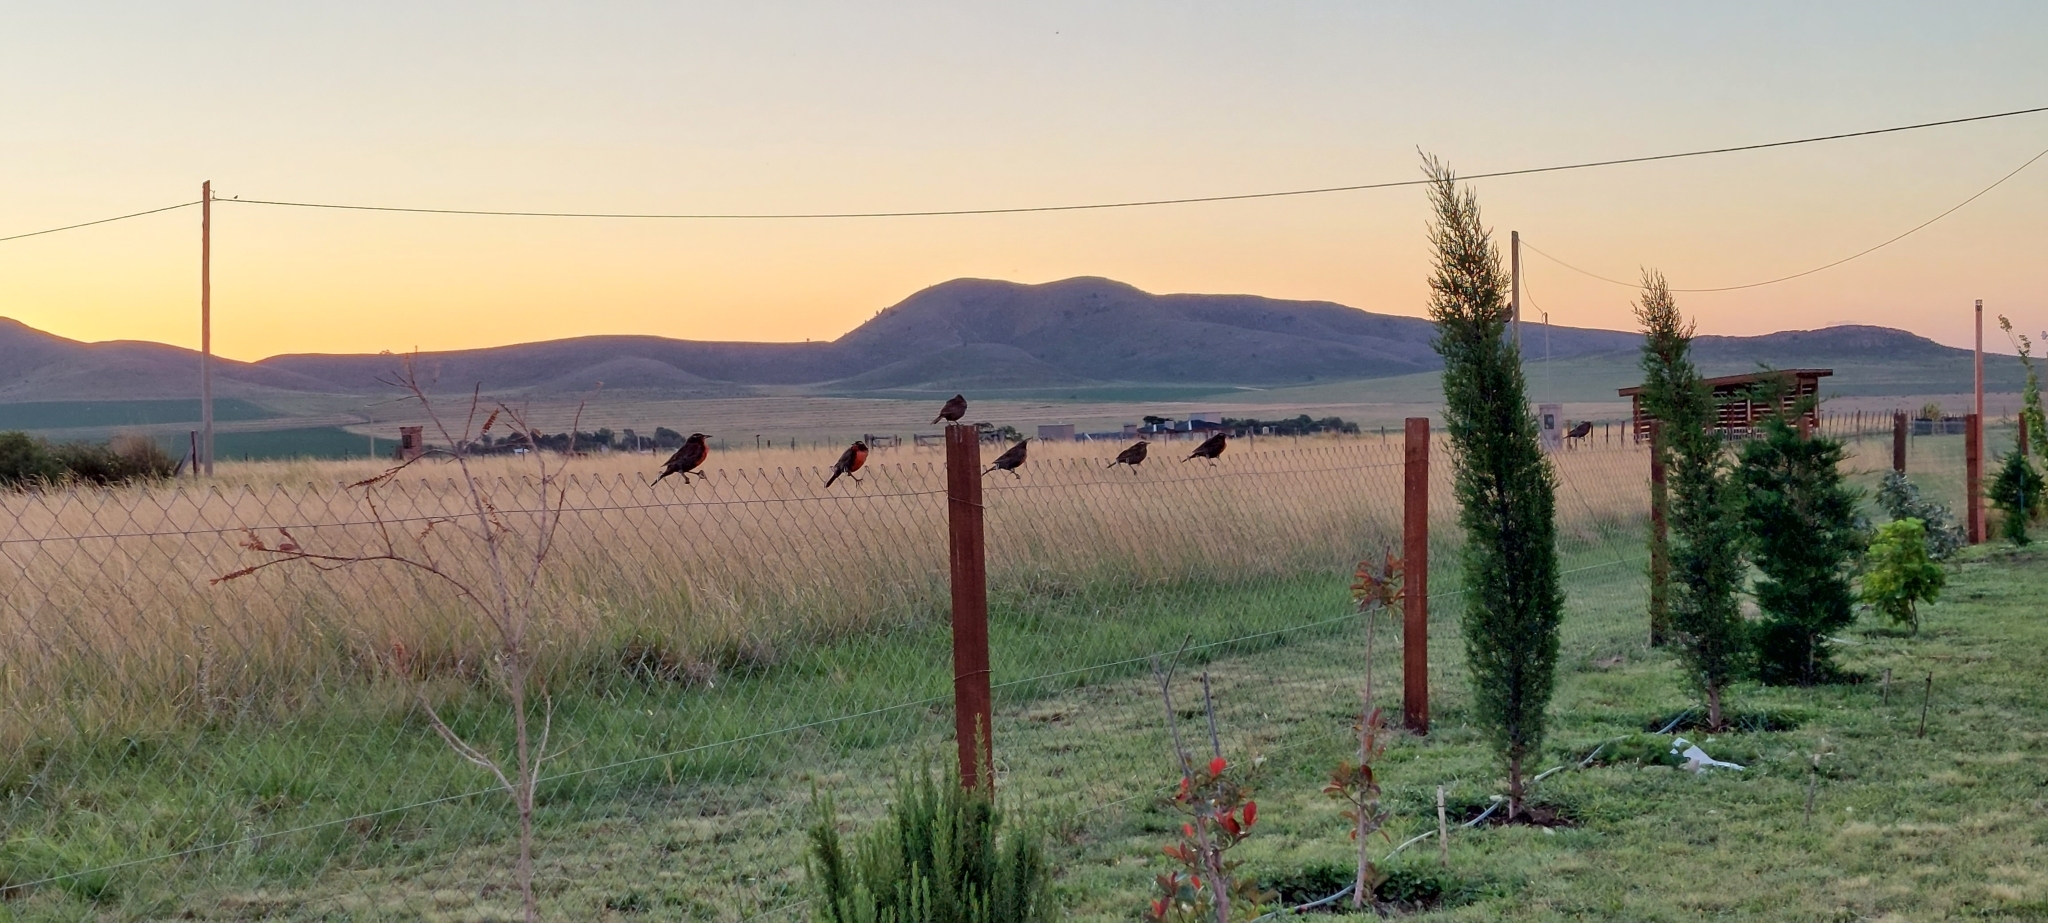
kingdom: Animalia
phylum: Chordata
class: Aves
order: Passeriformes
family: Icteridae
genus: Sturnella
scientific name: Sturnella loyca
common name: Long-tailed meadowlark
